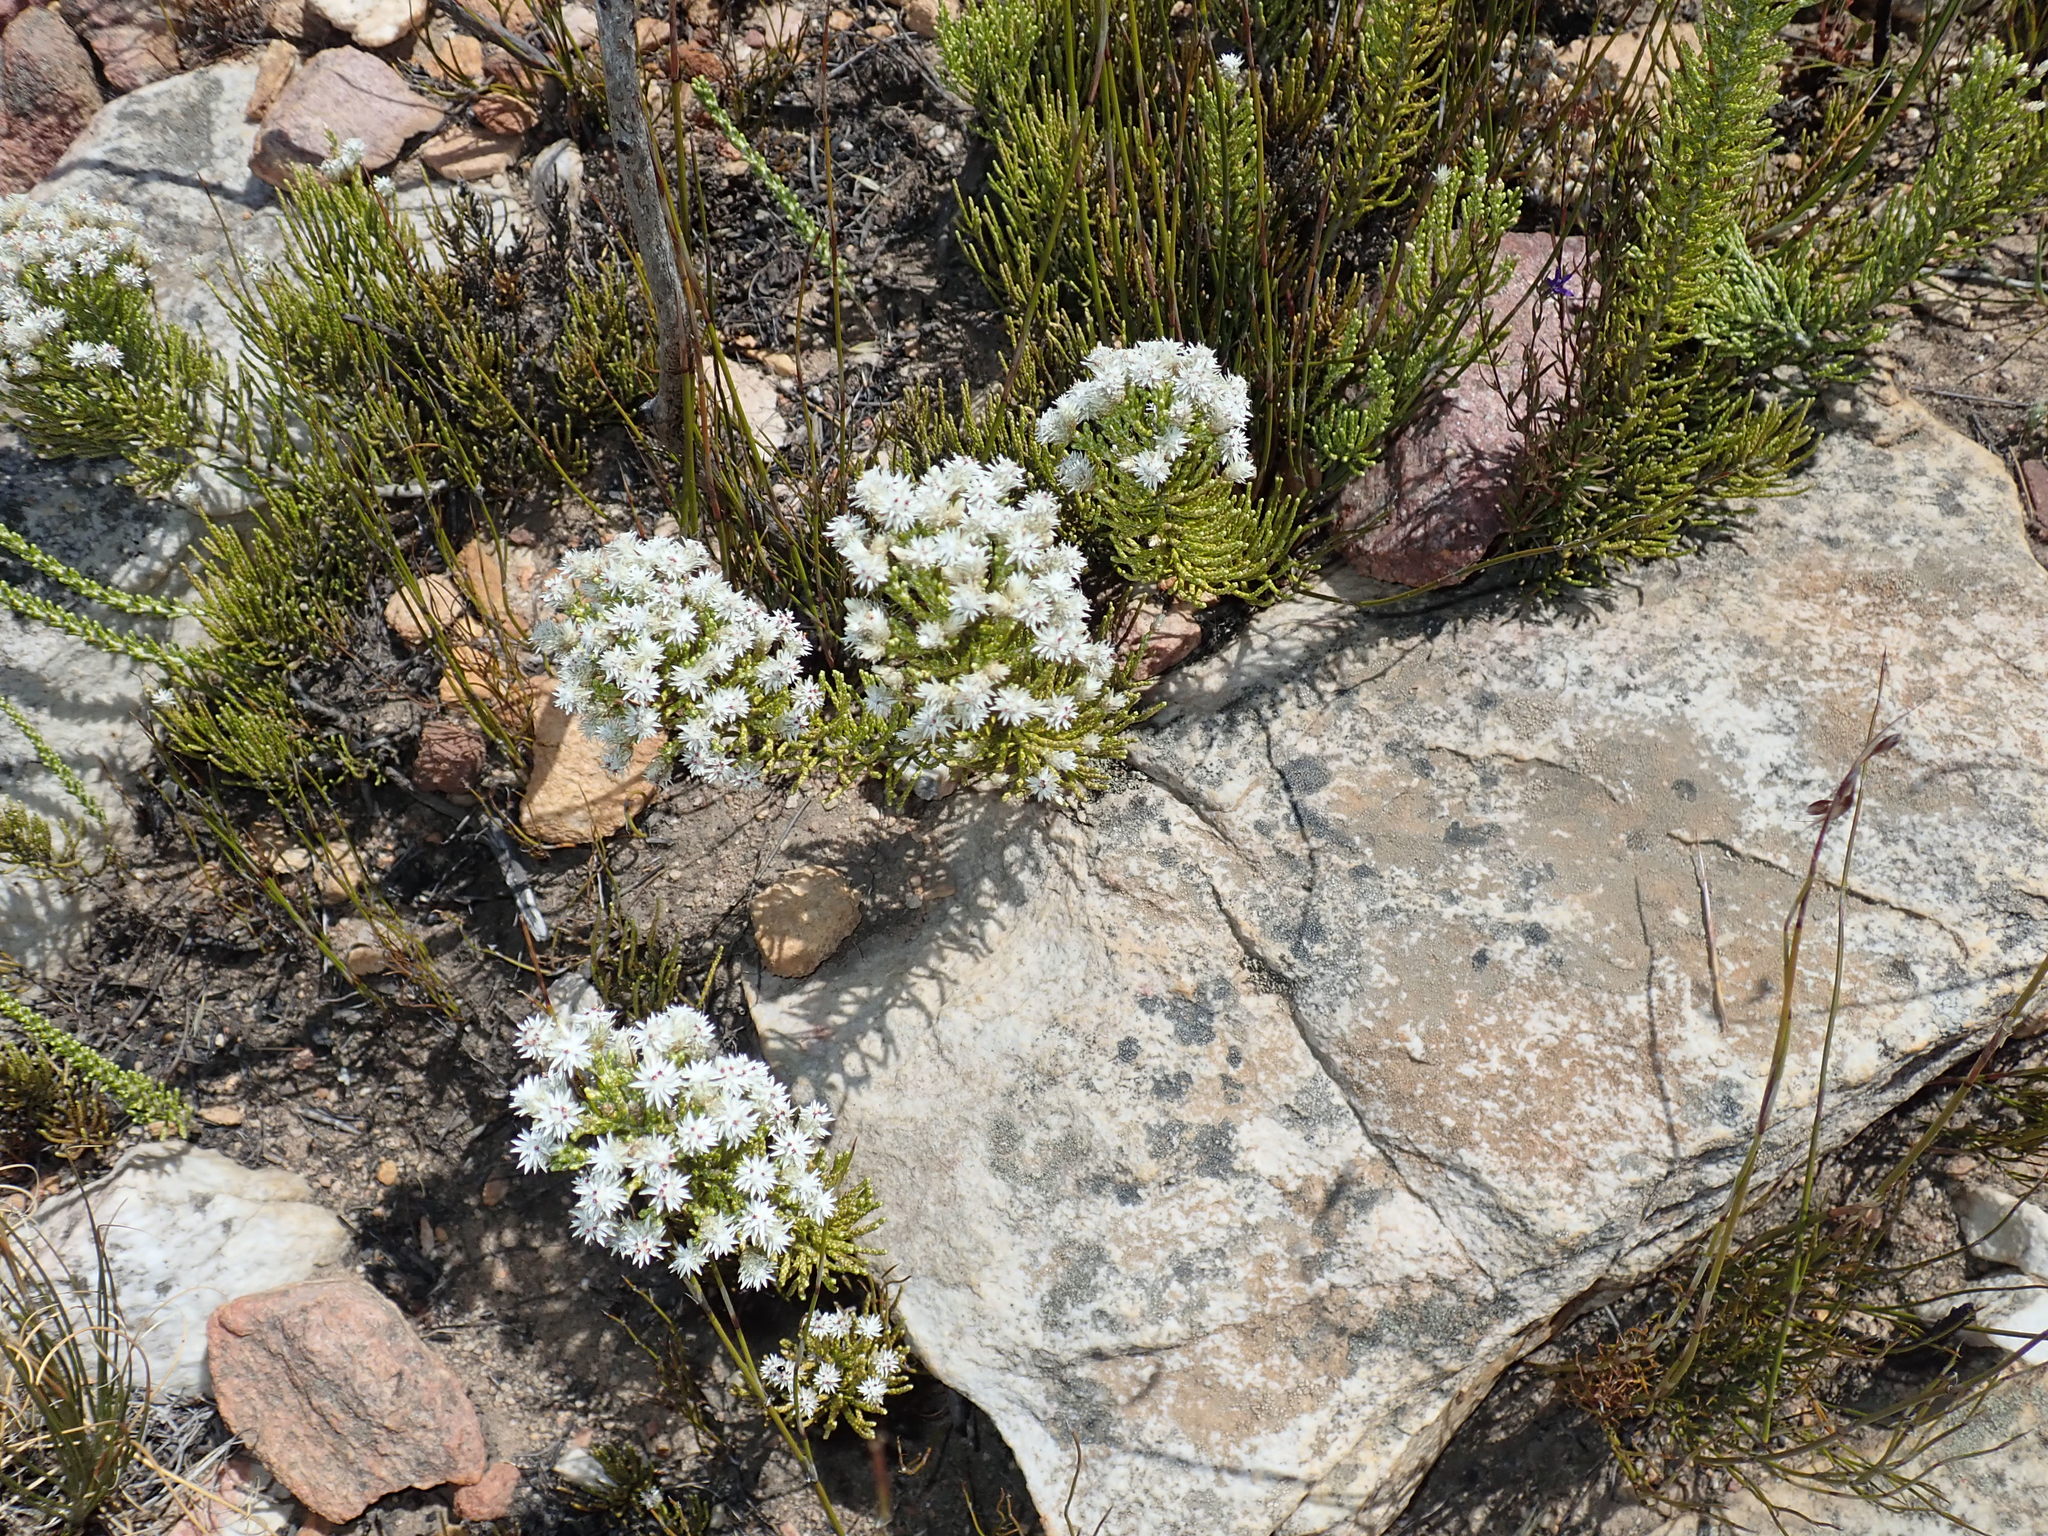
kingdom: Plantae
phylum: Tracheophyta
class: Magnoliopsida
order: Asterales
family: Asteraceae
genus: Dolichothrix
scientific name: Dolichothrix ericoides
